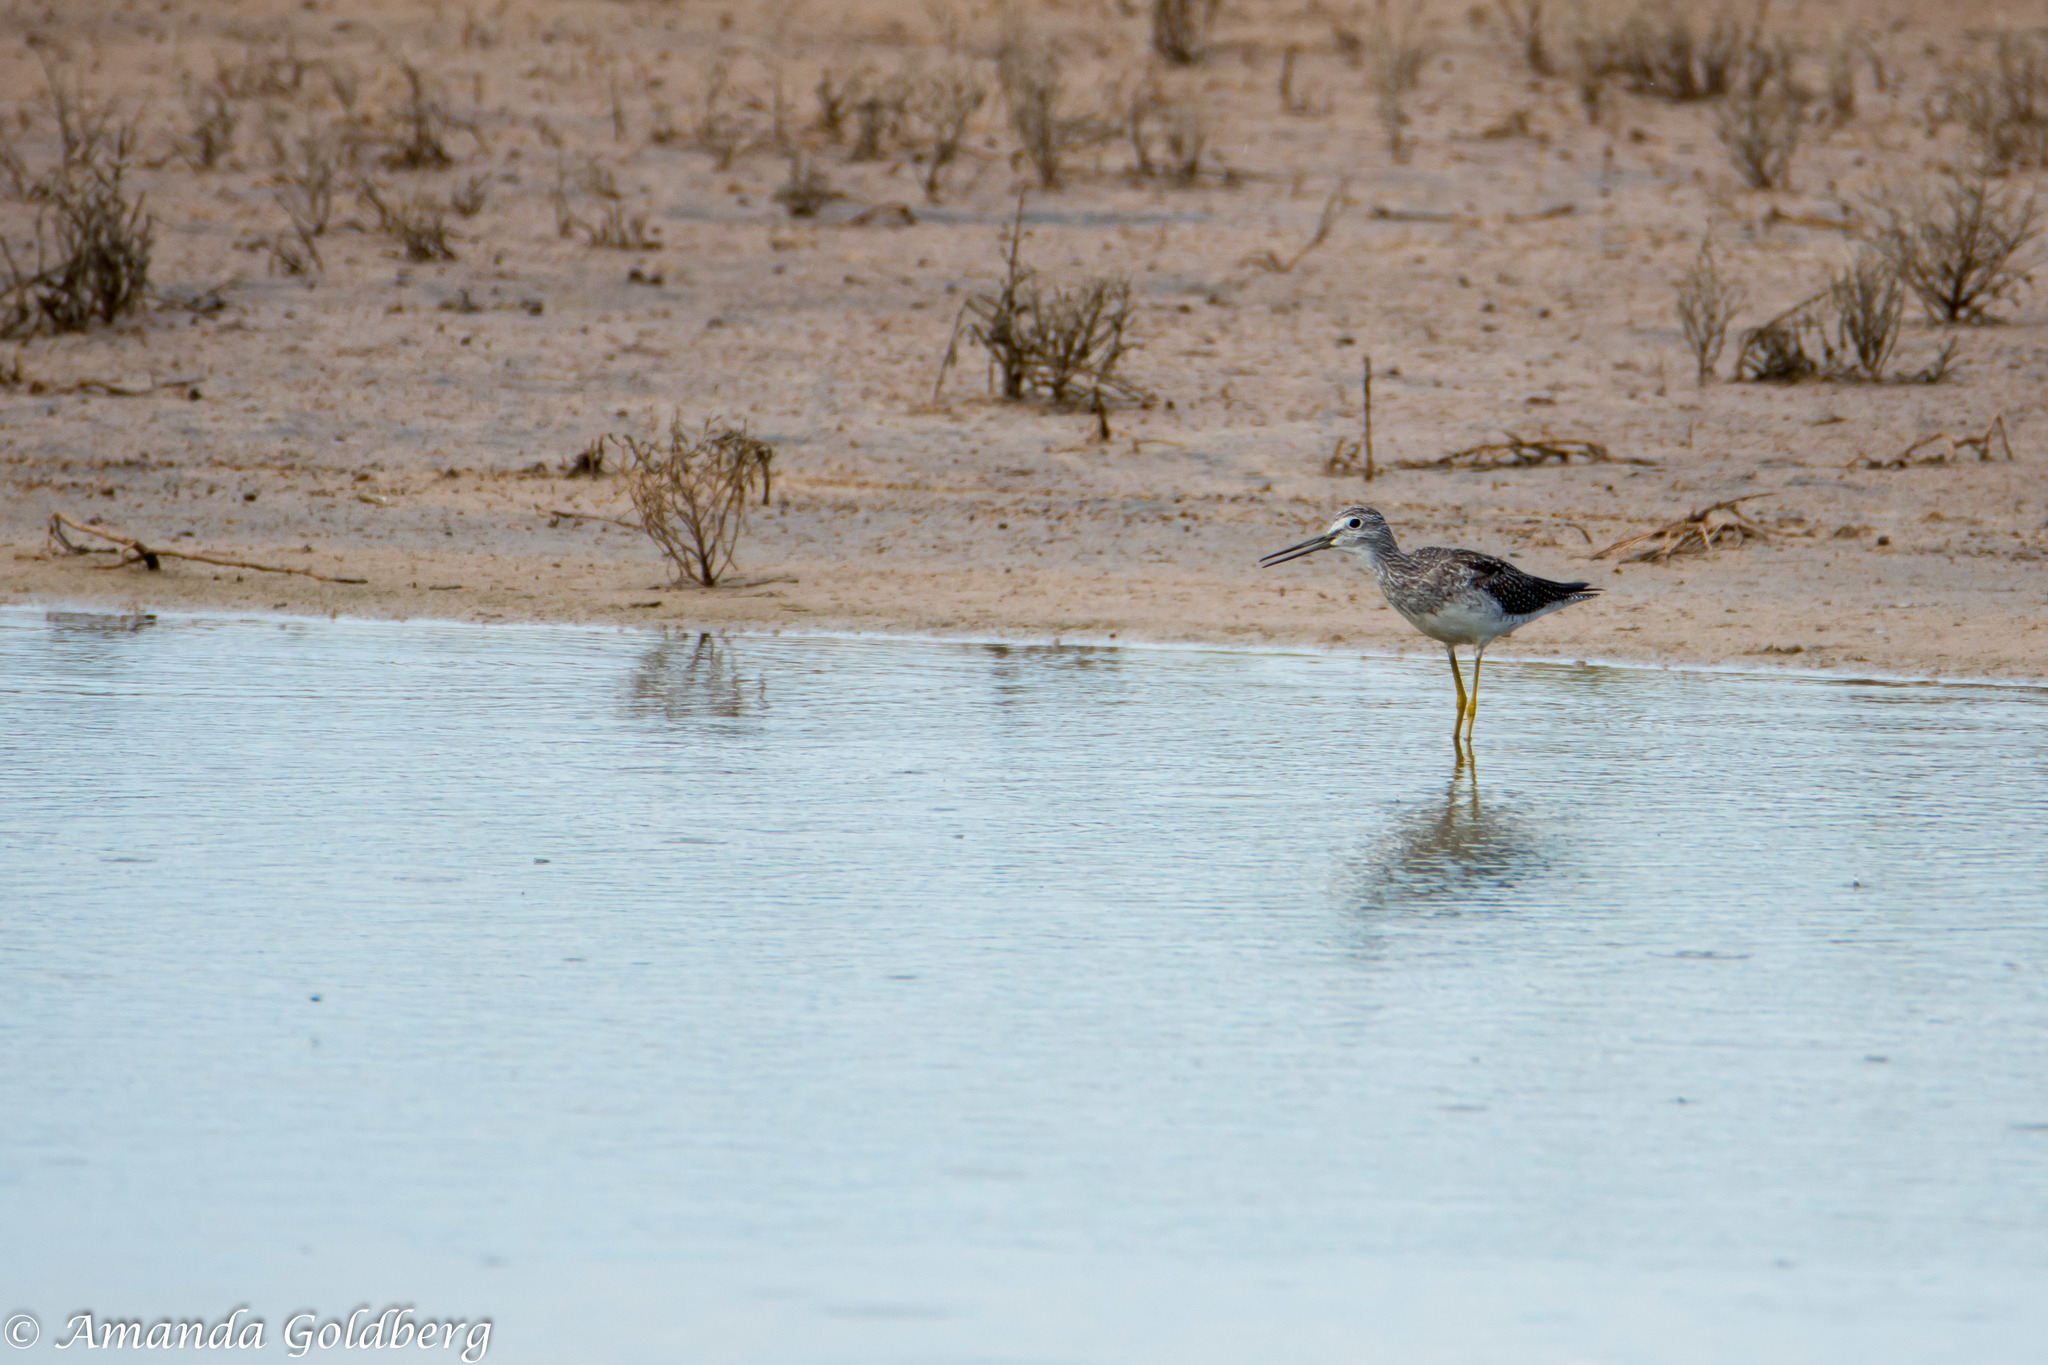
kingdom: Animalia
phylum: Chordata
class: Aves
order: Charadriiformes
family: Scolopacidae
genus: Tringa
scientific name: Tringa melanoleuca
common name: Greater yellowlegs
